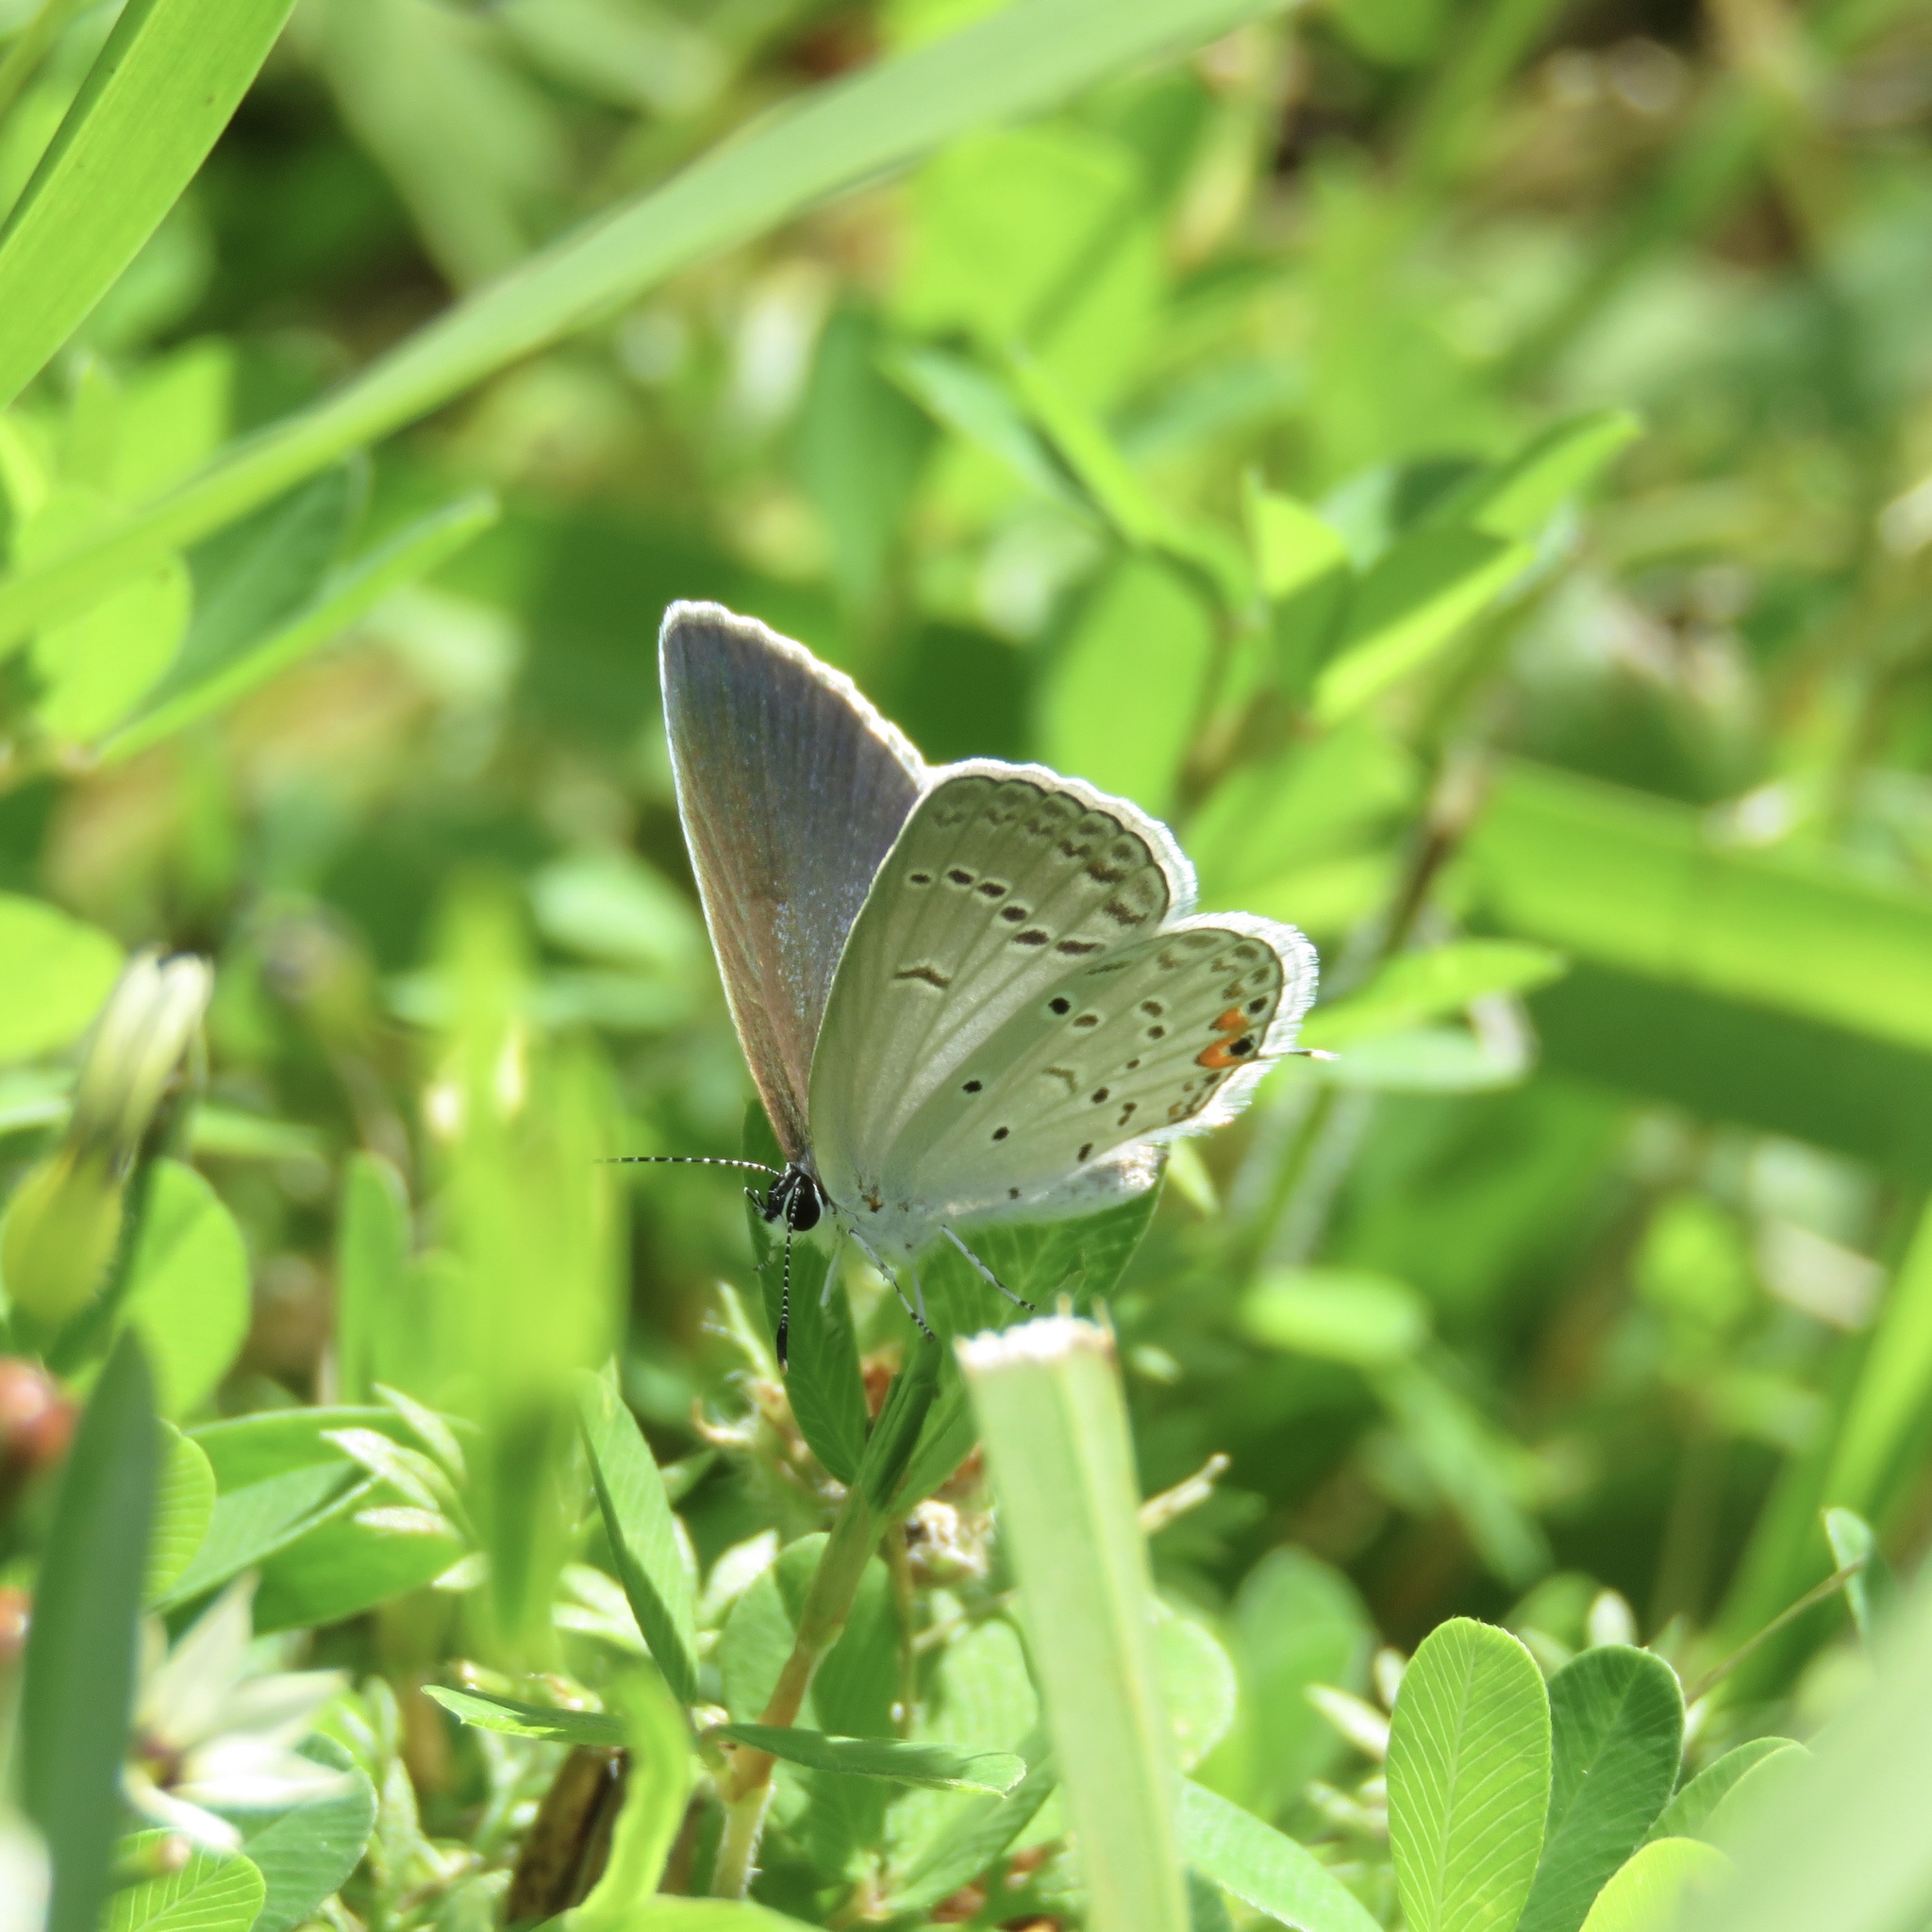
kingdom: Animalia
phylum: Arthropoda
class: Insecta
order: Lepidoptera
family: Lycaenidae
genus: Elkalyce
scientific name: Elkalyce comyntas
